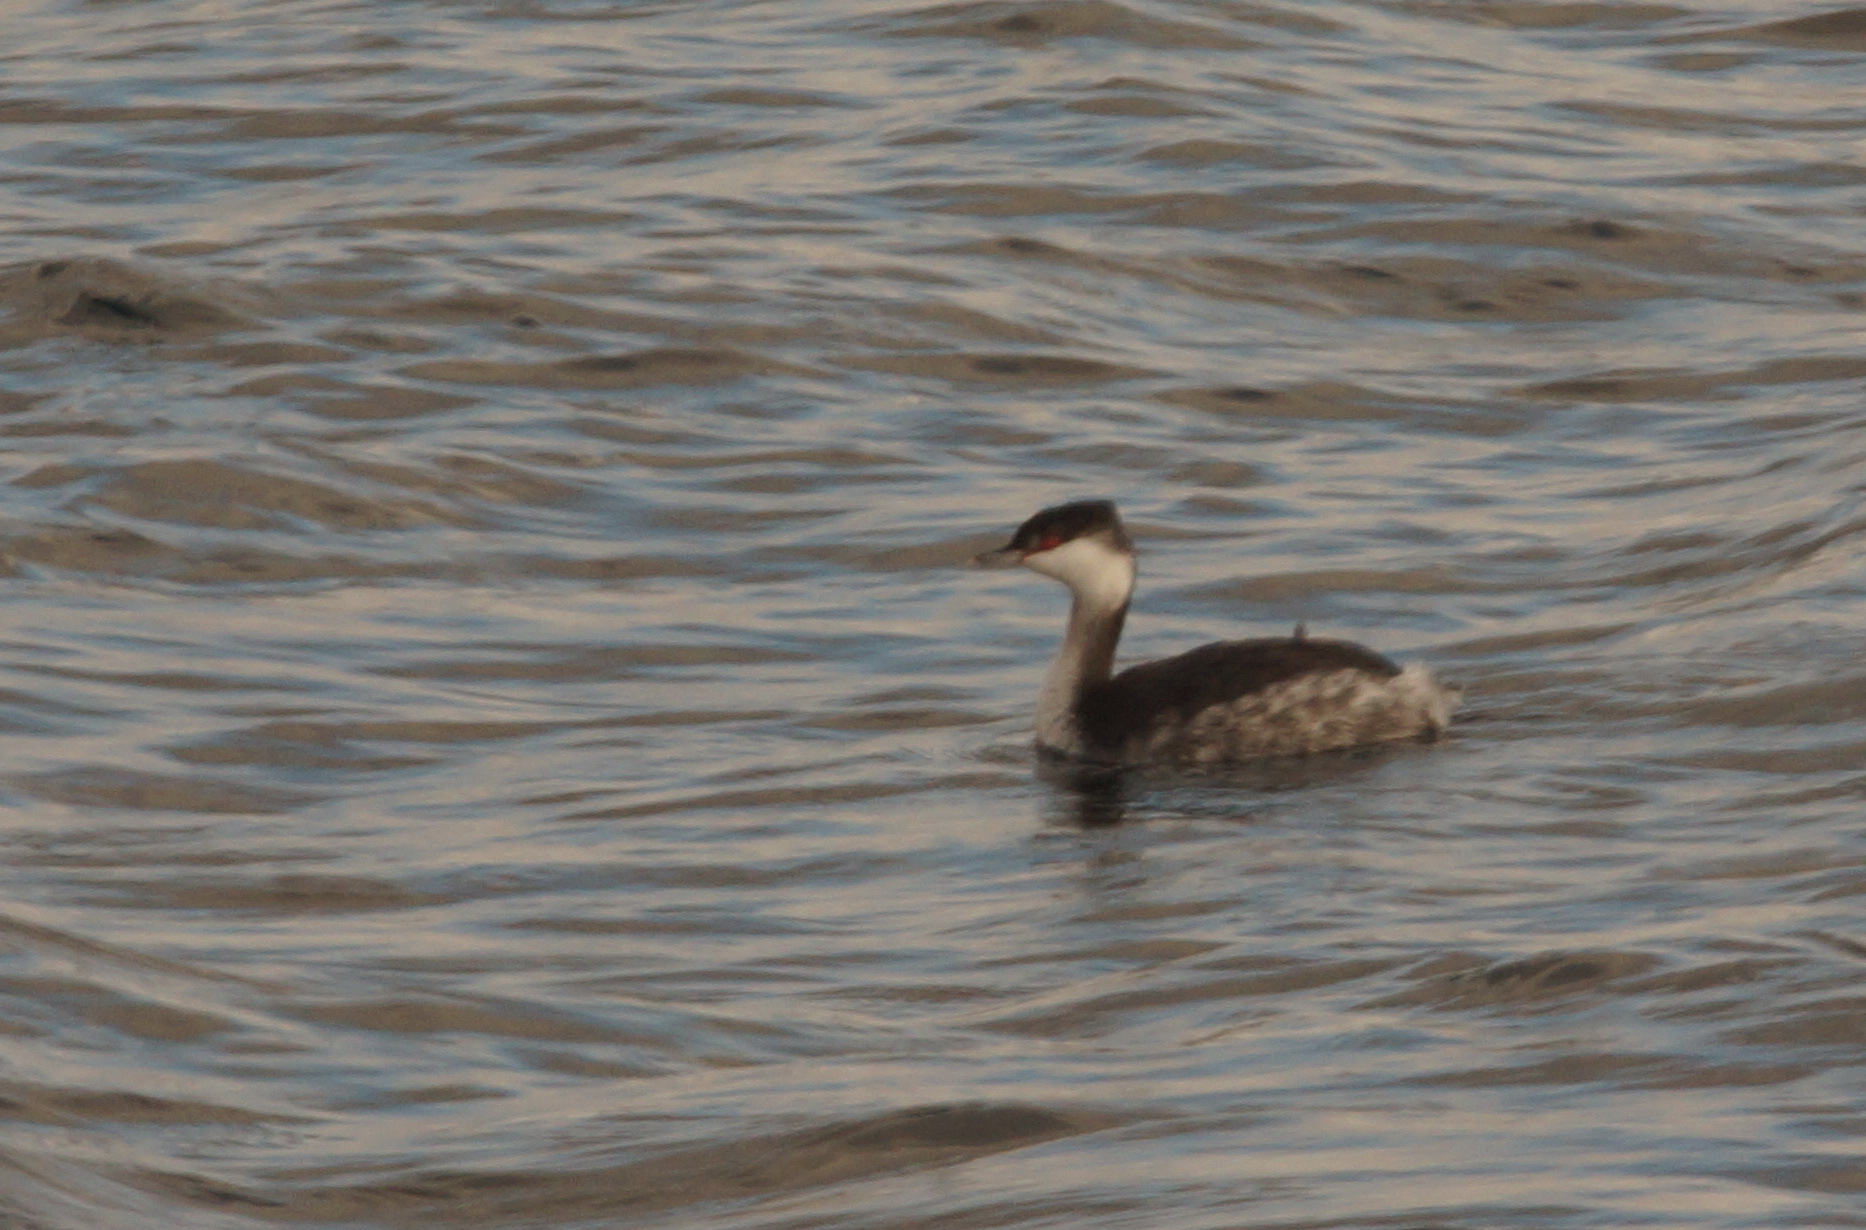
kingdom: Animalia
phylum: Chordata
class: Aves
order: Podicipediformes
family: Podicipedidae
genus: Podiceps
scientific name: Podiceps auritus
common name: Horned grebe
